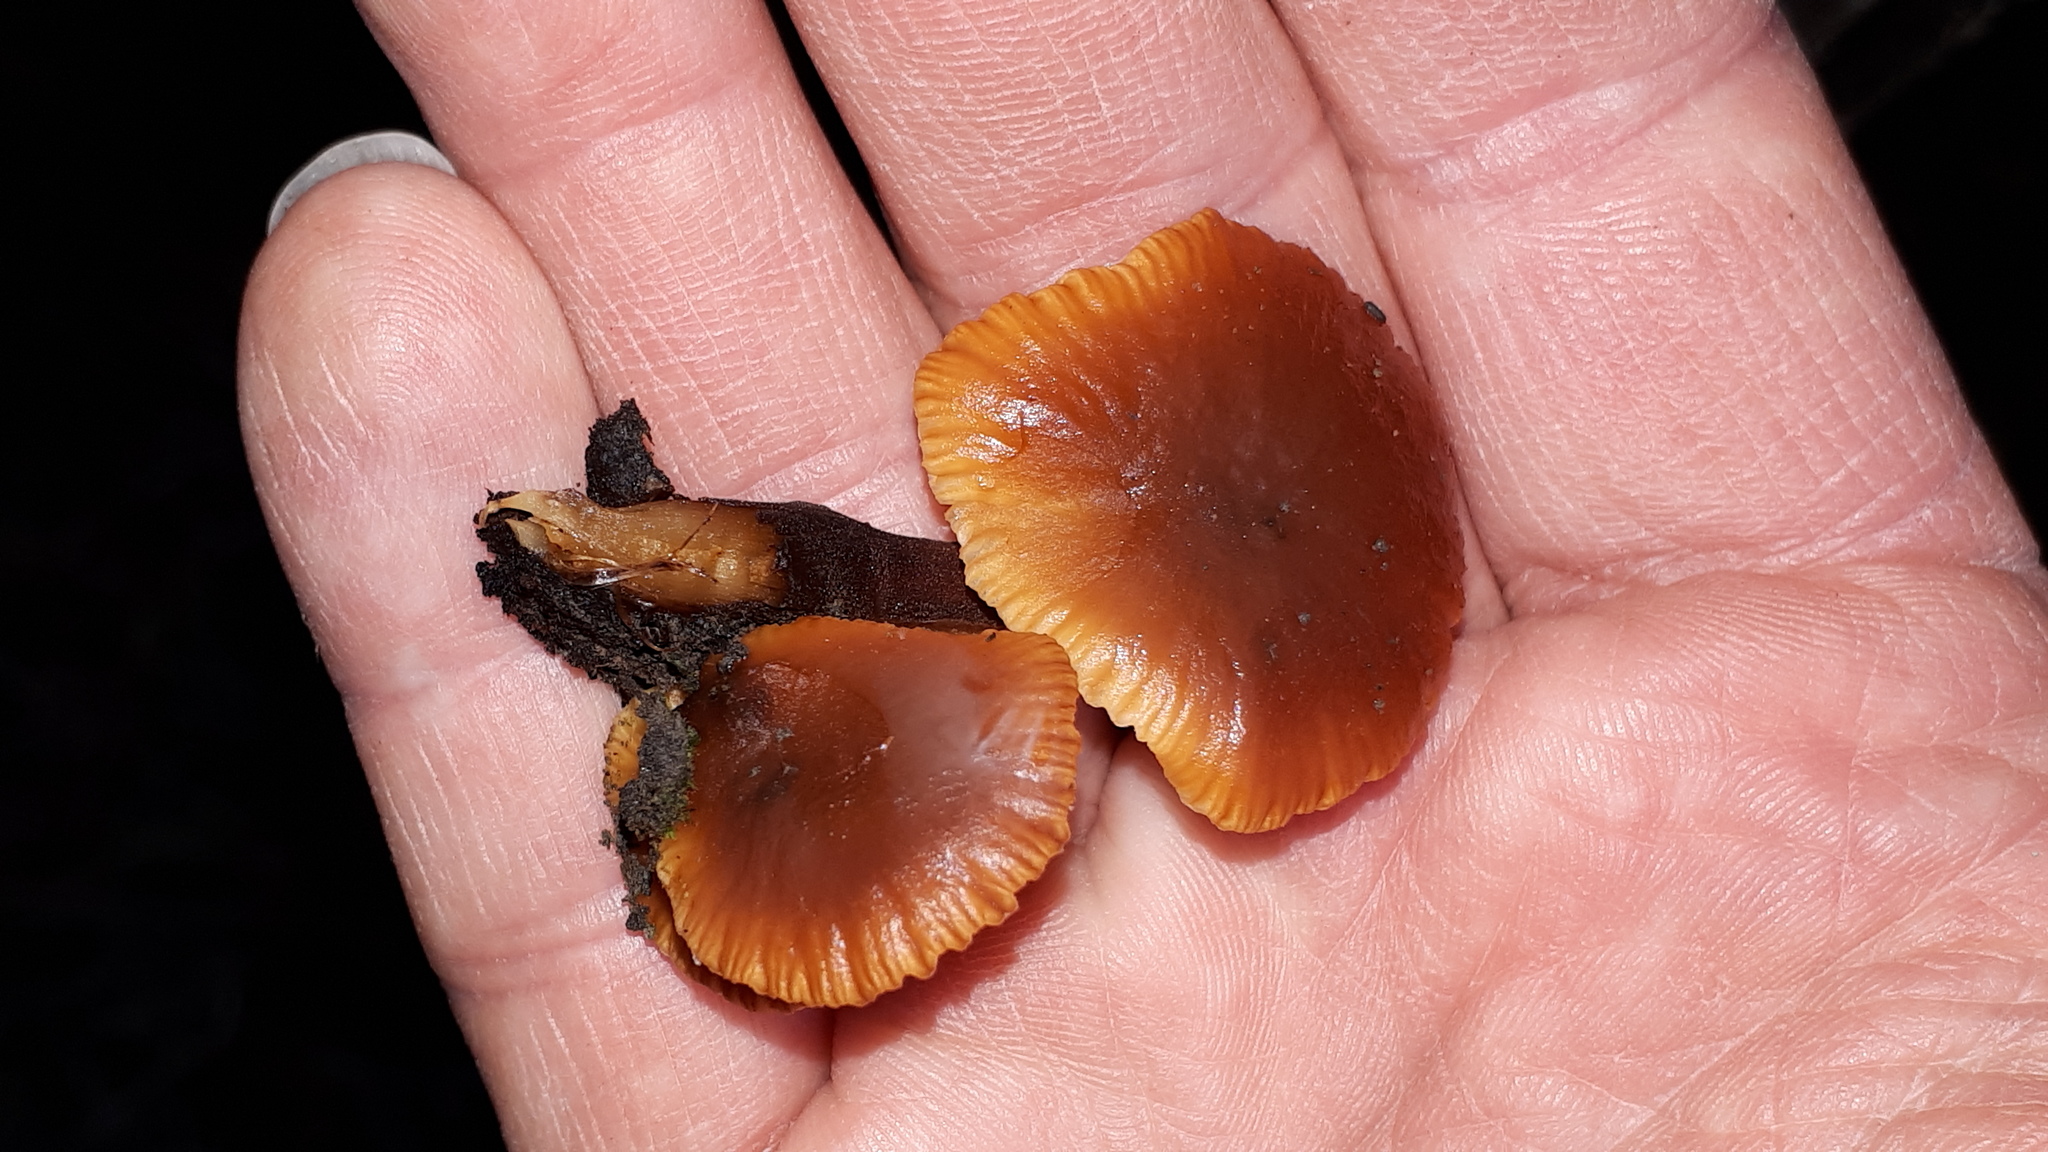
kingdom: Fungi
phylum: Basidiomycota
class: Agaricomycetes
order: Agaricales
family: Physalacriaceae
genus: Flammulina
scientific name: Flammulina
